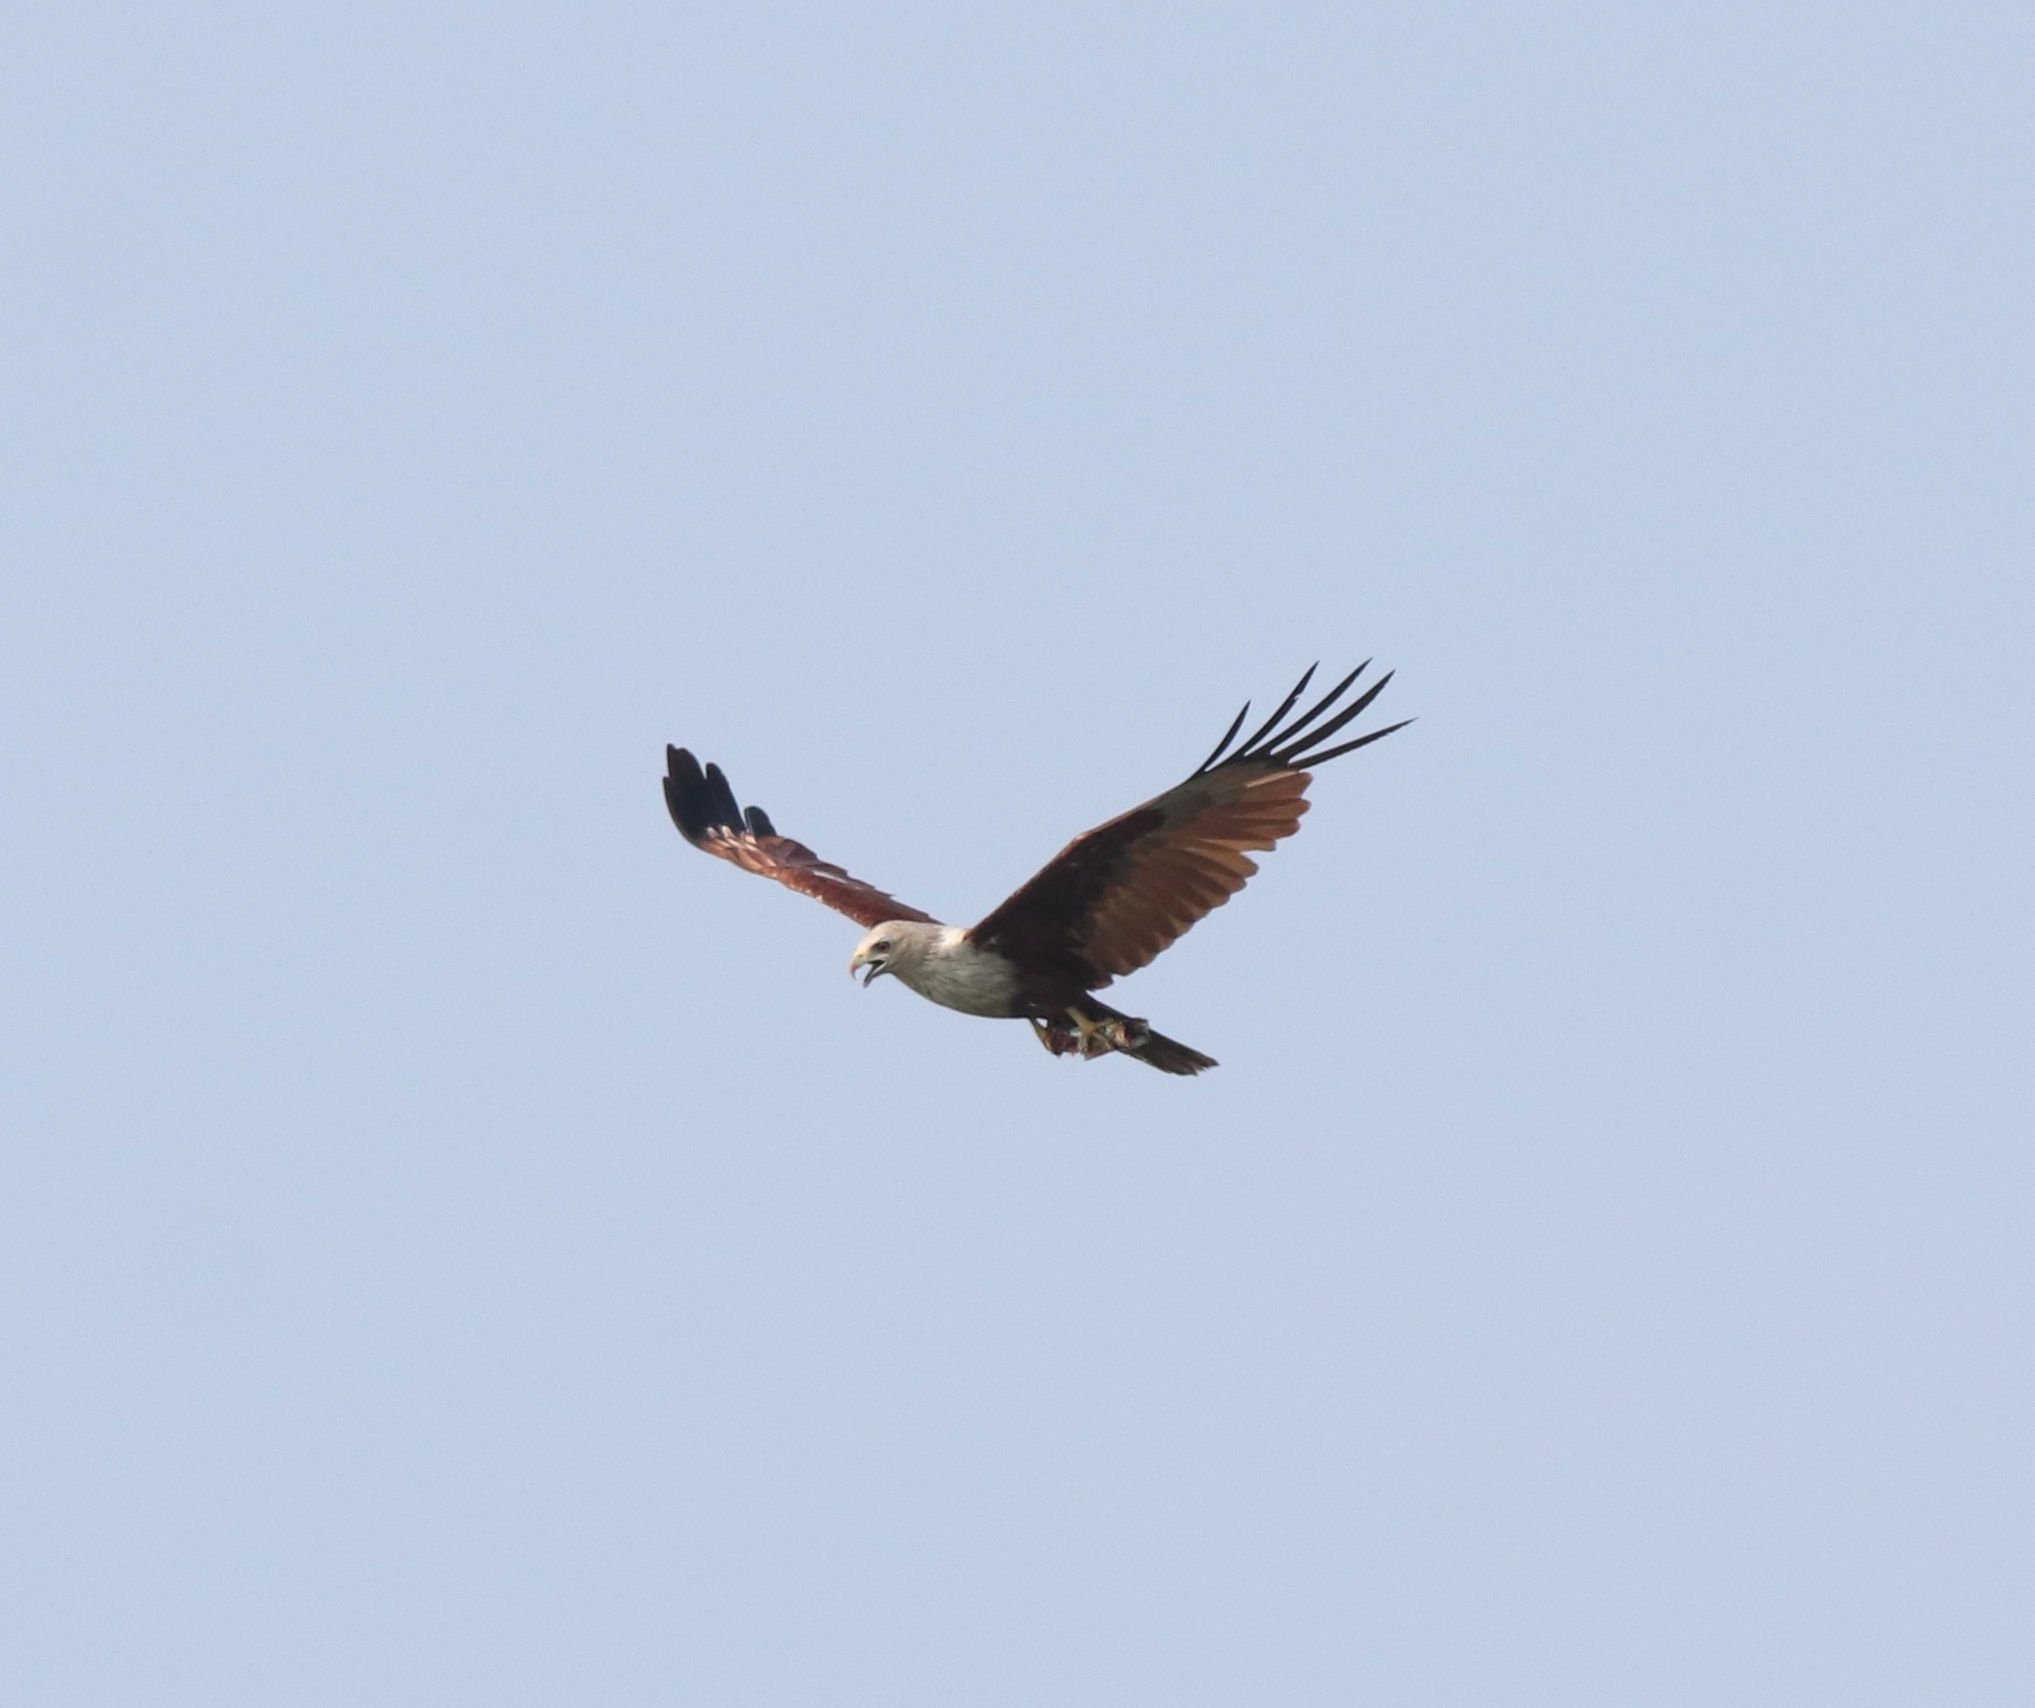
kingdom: Animalia
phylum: Chordata
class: Aves
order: Accipitriformes
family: Accipitridae
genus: Haliastur
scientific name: Haliastur indus
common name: Brahminy kite
